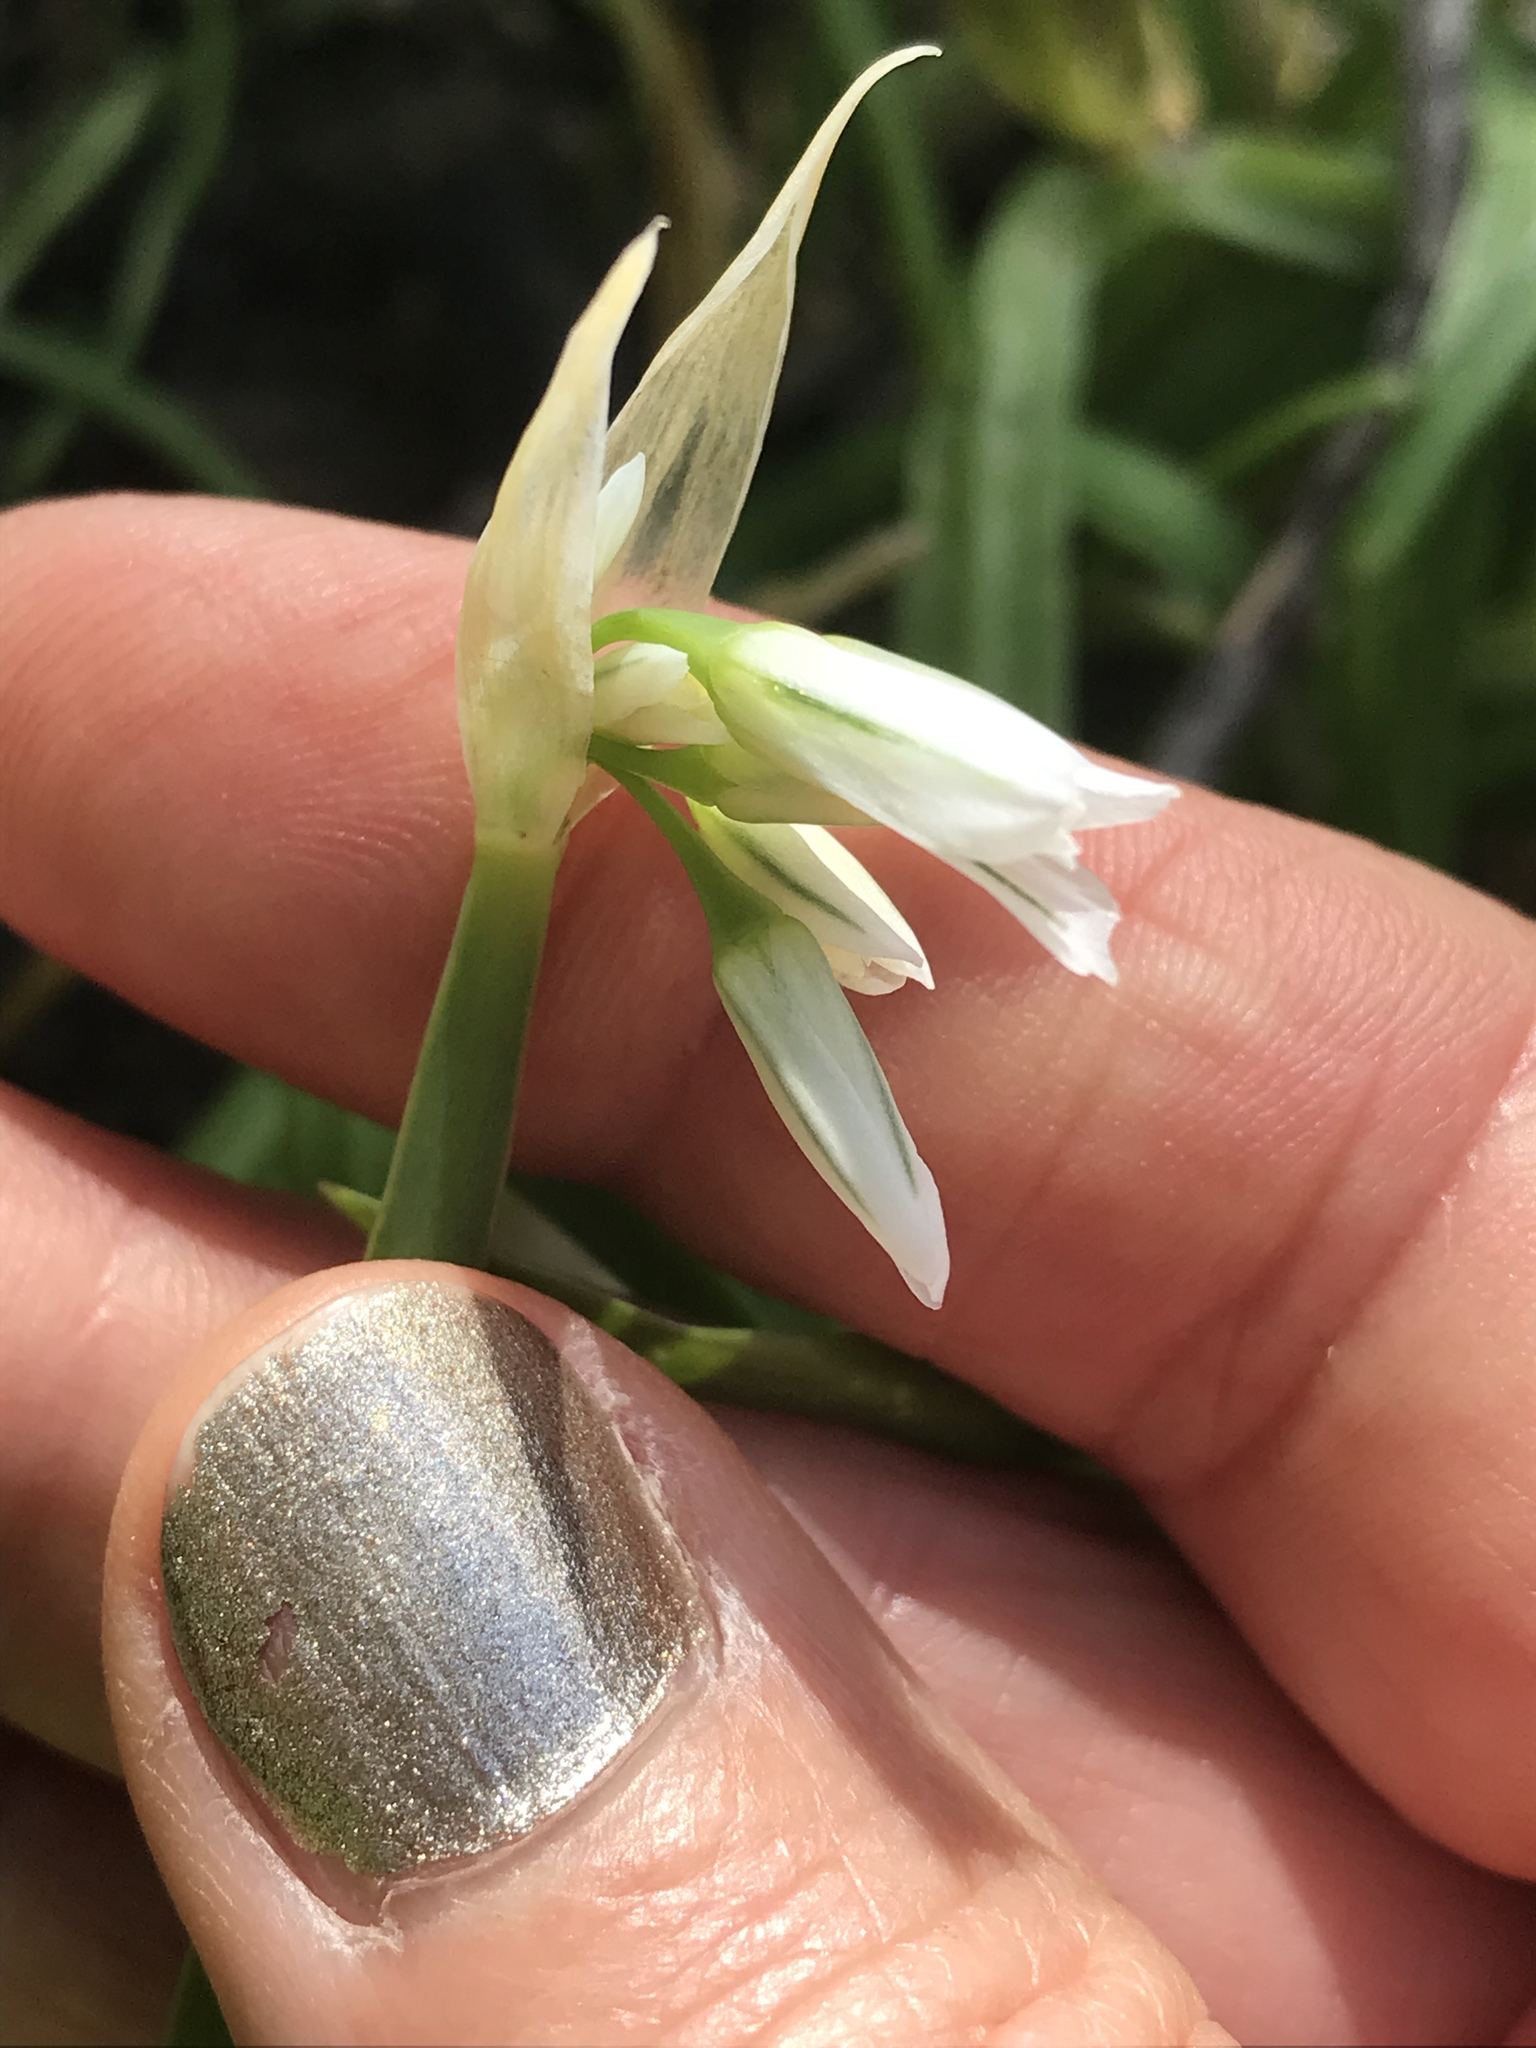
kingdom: Plantae
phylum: Tracheophyta
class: Liliopsida
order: Asparagales
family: Amaryllidaceae
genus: Allium
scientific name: Allium triquetrum
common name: Three-cornered garlic
